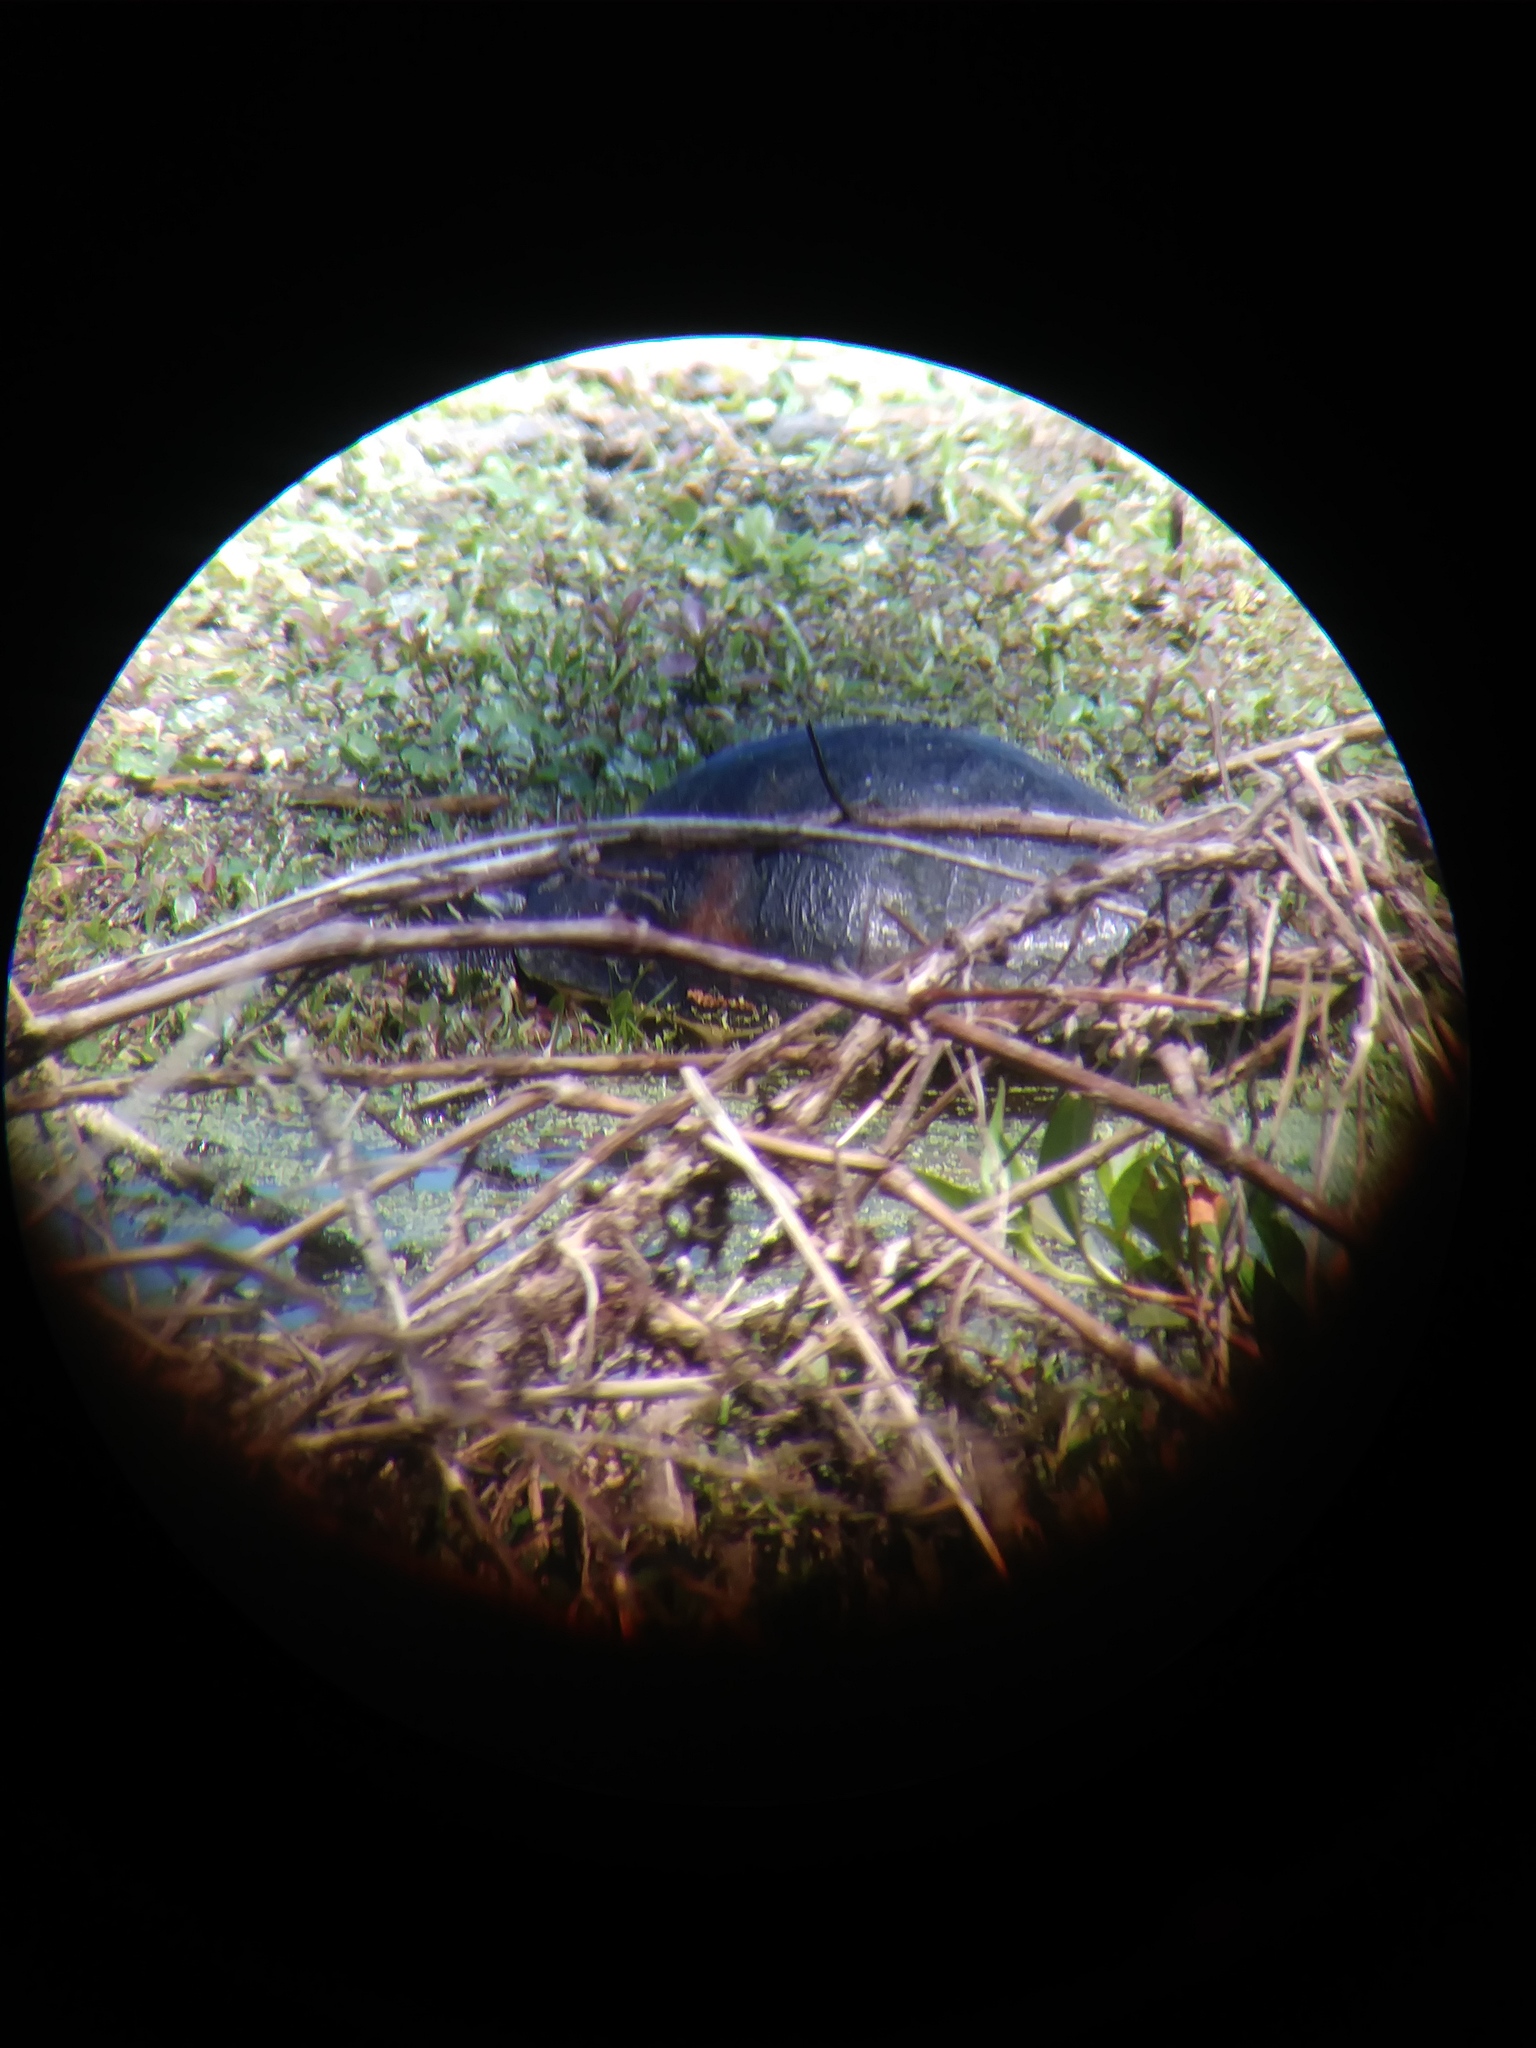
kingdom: Animalia
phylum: Chordata
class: Testudines
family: Emydidae
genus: Pseudemys
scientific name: Pseudemys nelsoni
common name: Florida red-bellied turtle
